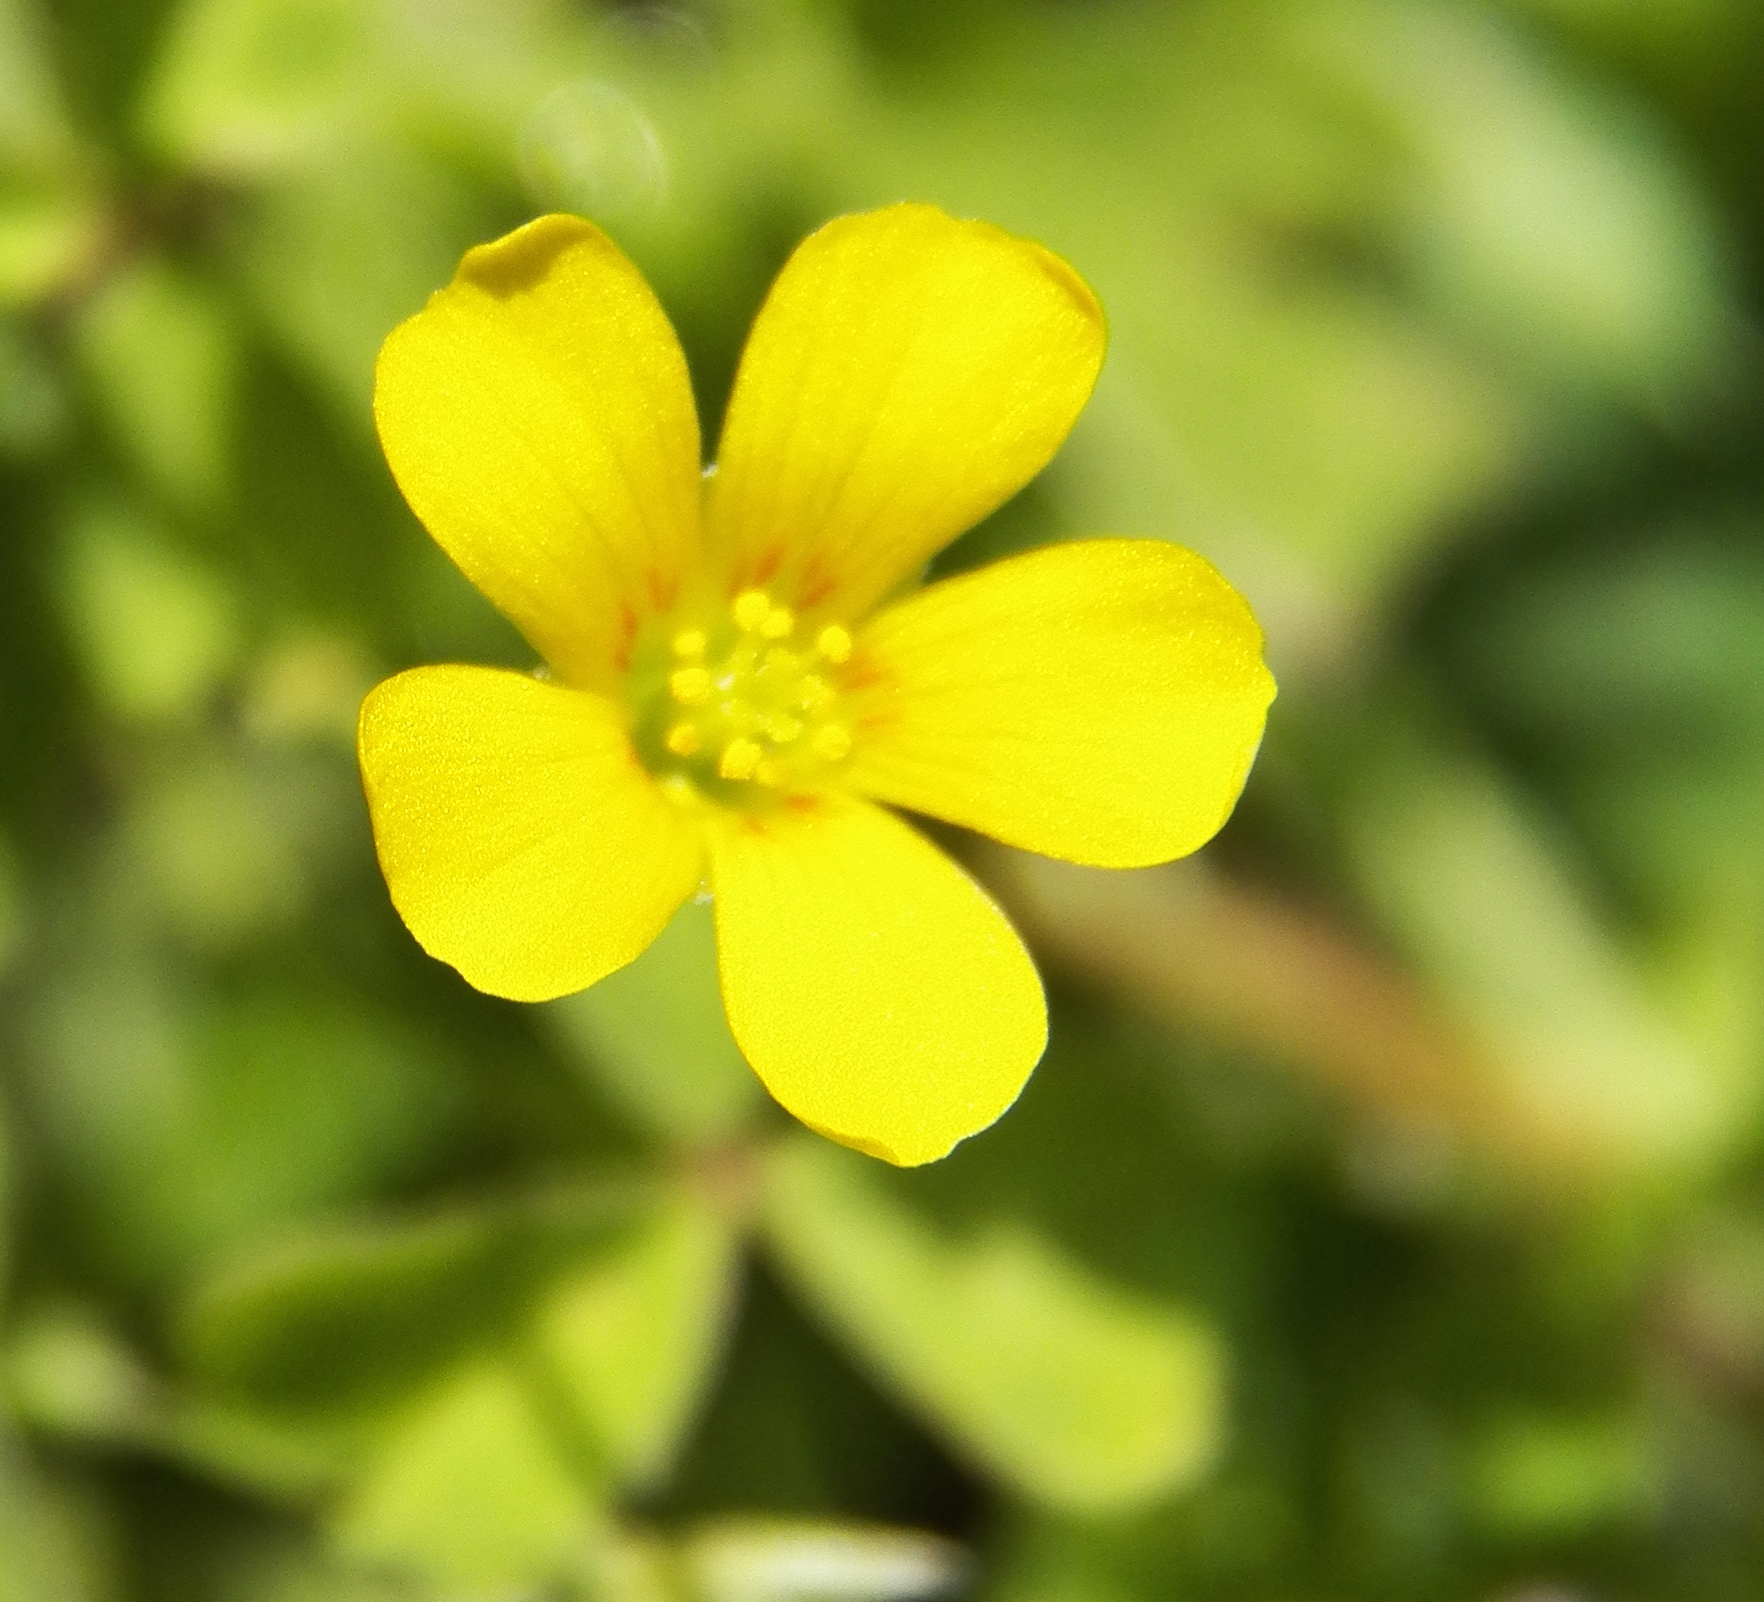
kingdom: Plantae
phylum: Tracheophyta
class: Magnoliopsida
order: Oxalidales
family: Oxalidaceae
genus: Oxalis
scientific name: Oxalis texana
